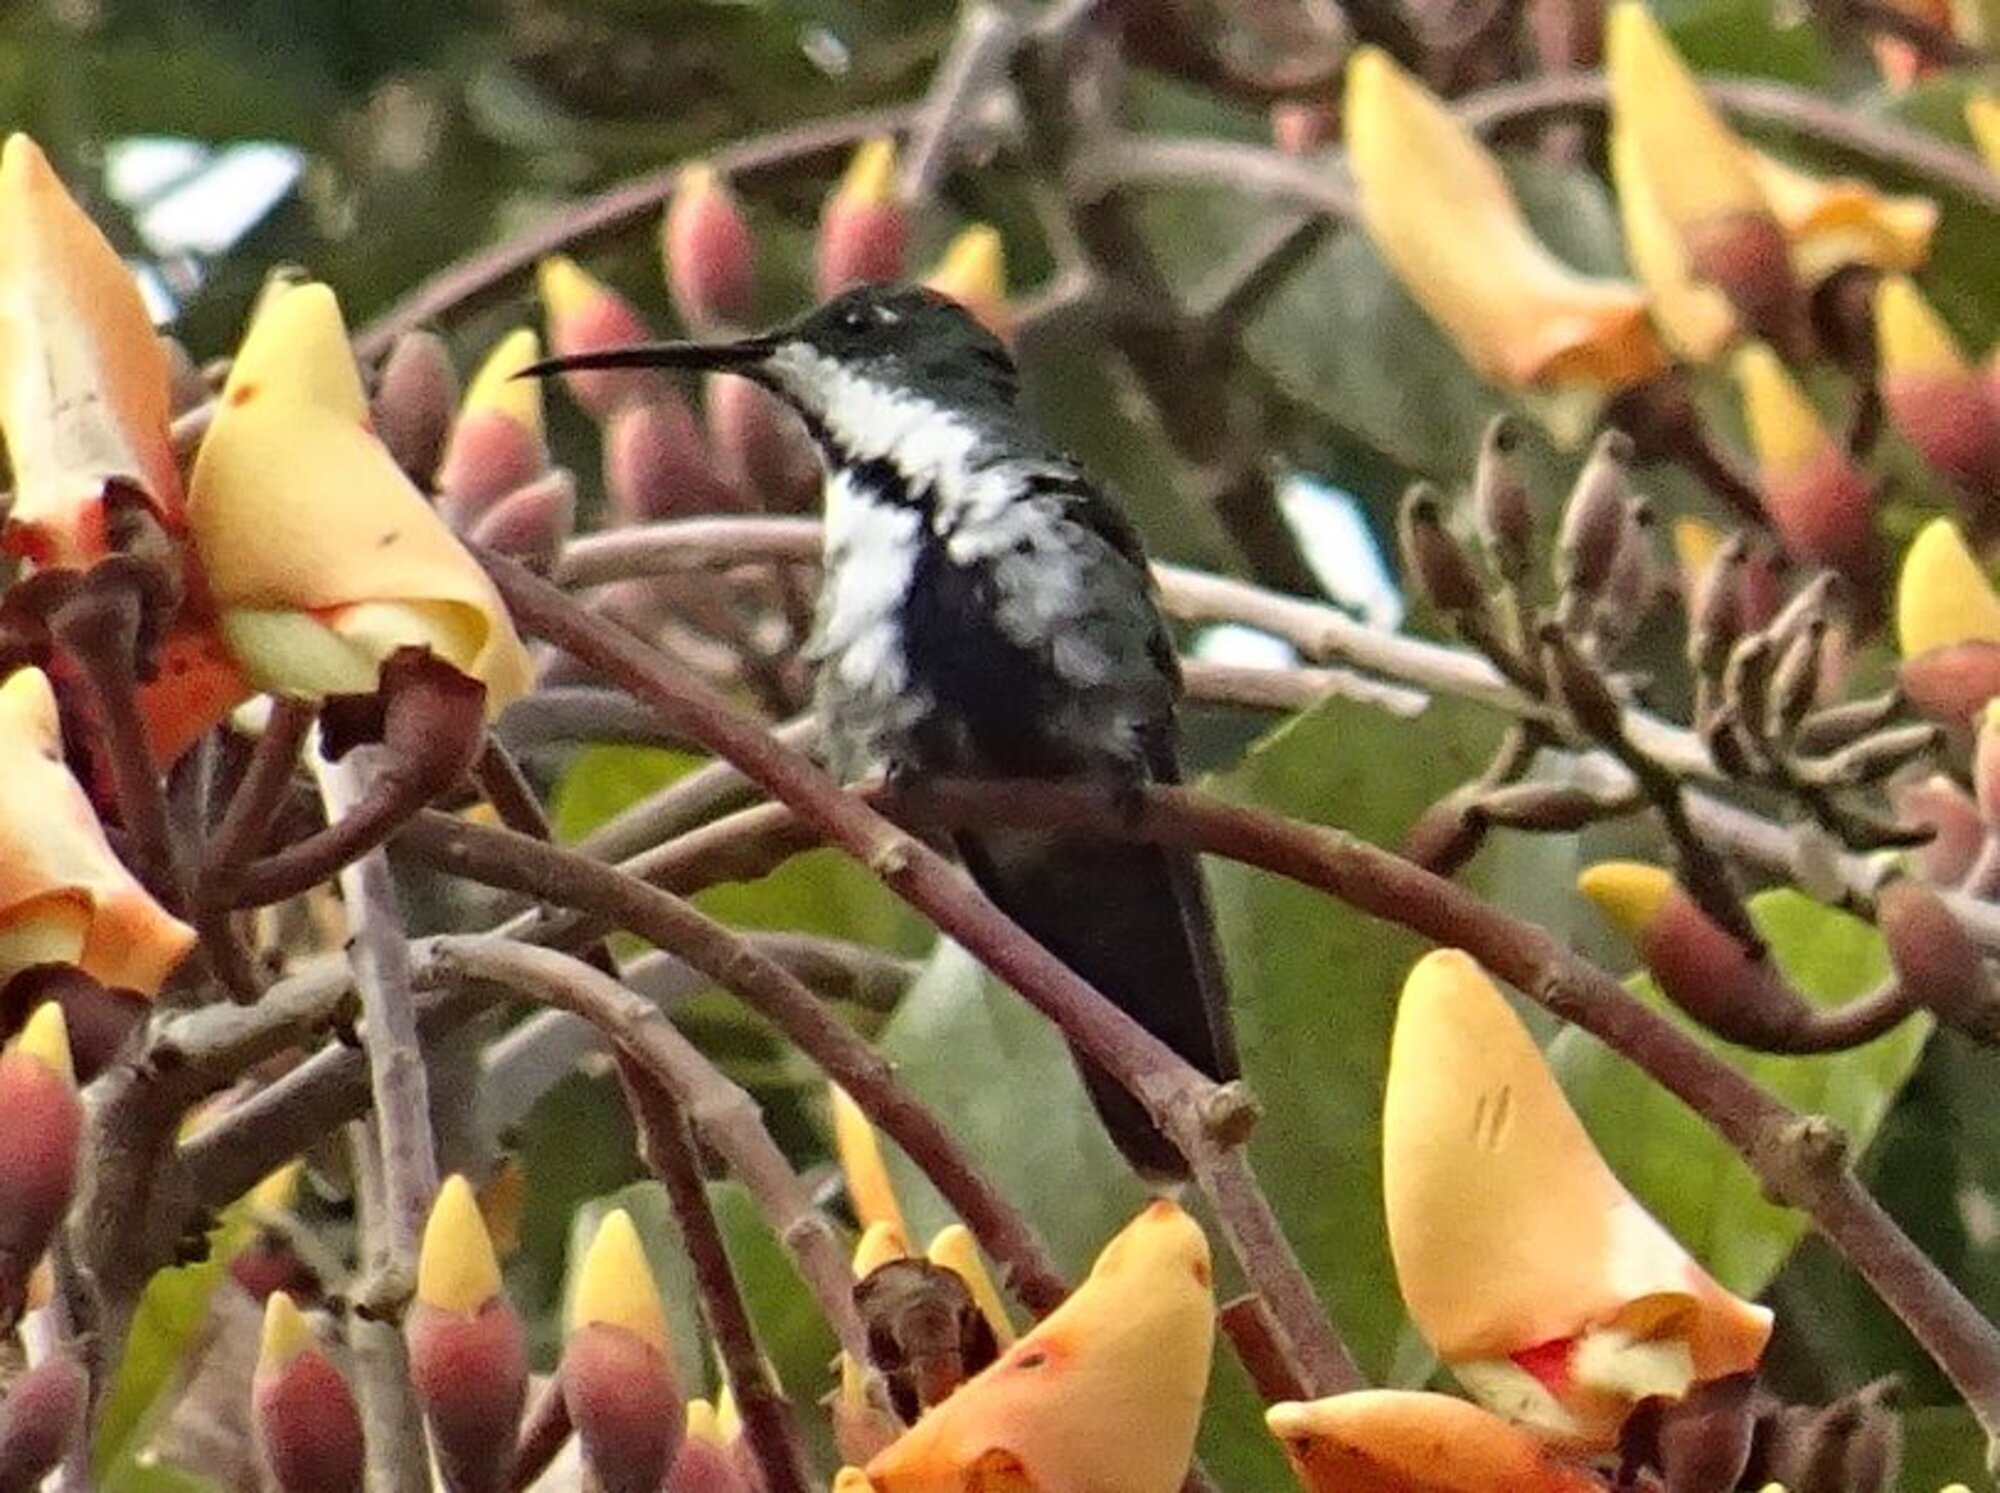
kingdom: Animalia
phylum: Chordata
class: Aves
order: Apodiformes
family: Trochilidae
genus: Anthracothorax
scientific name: Anthracothorax nigricollis
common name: Black-throated mango
